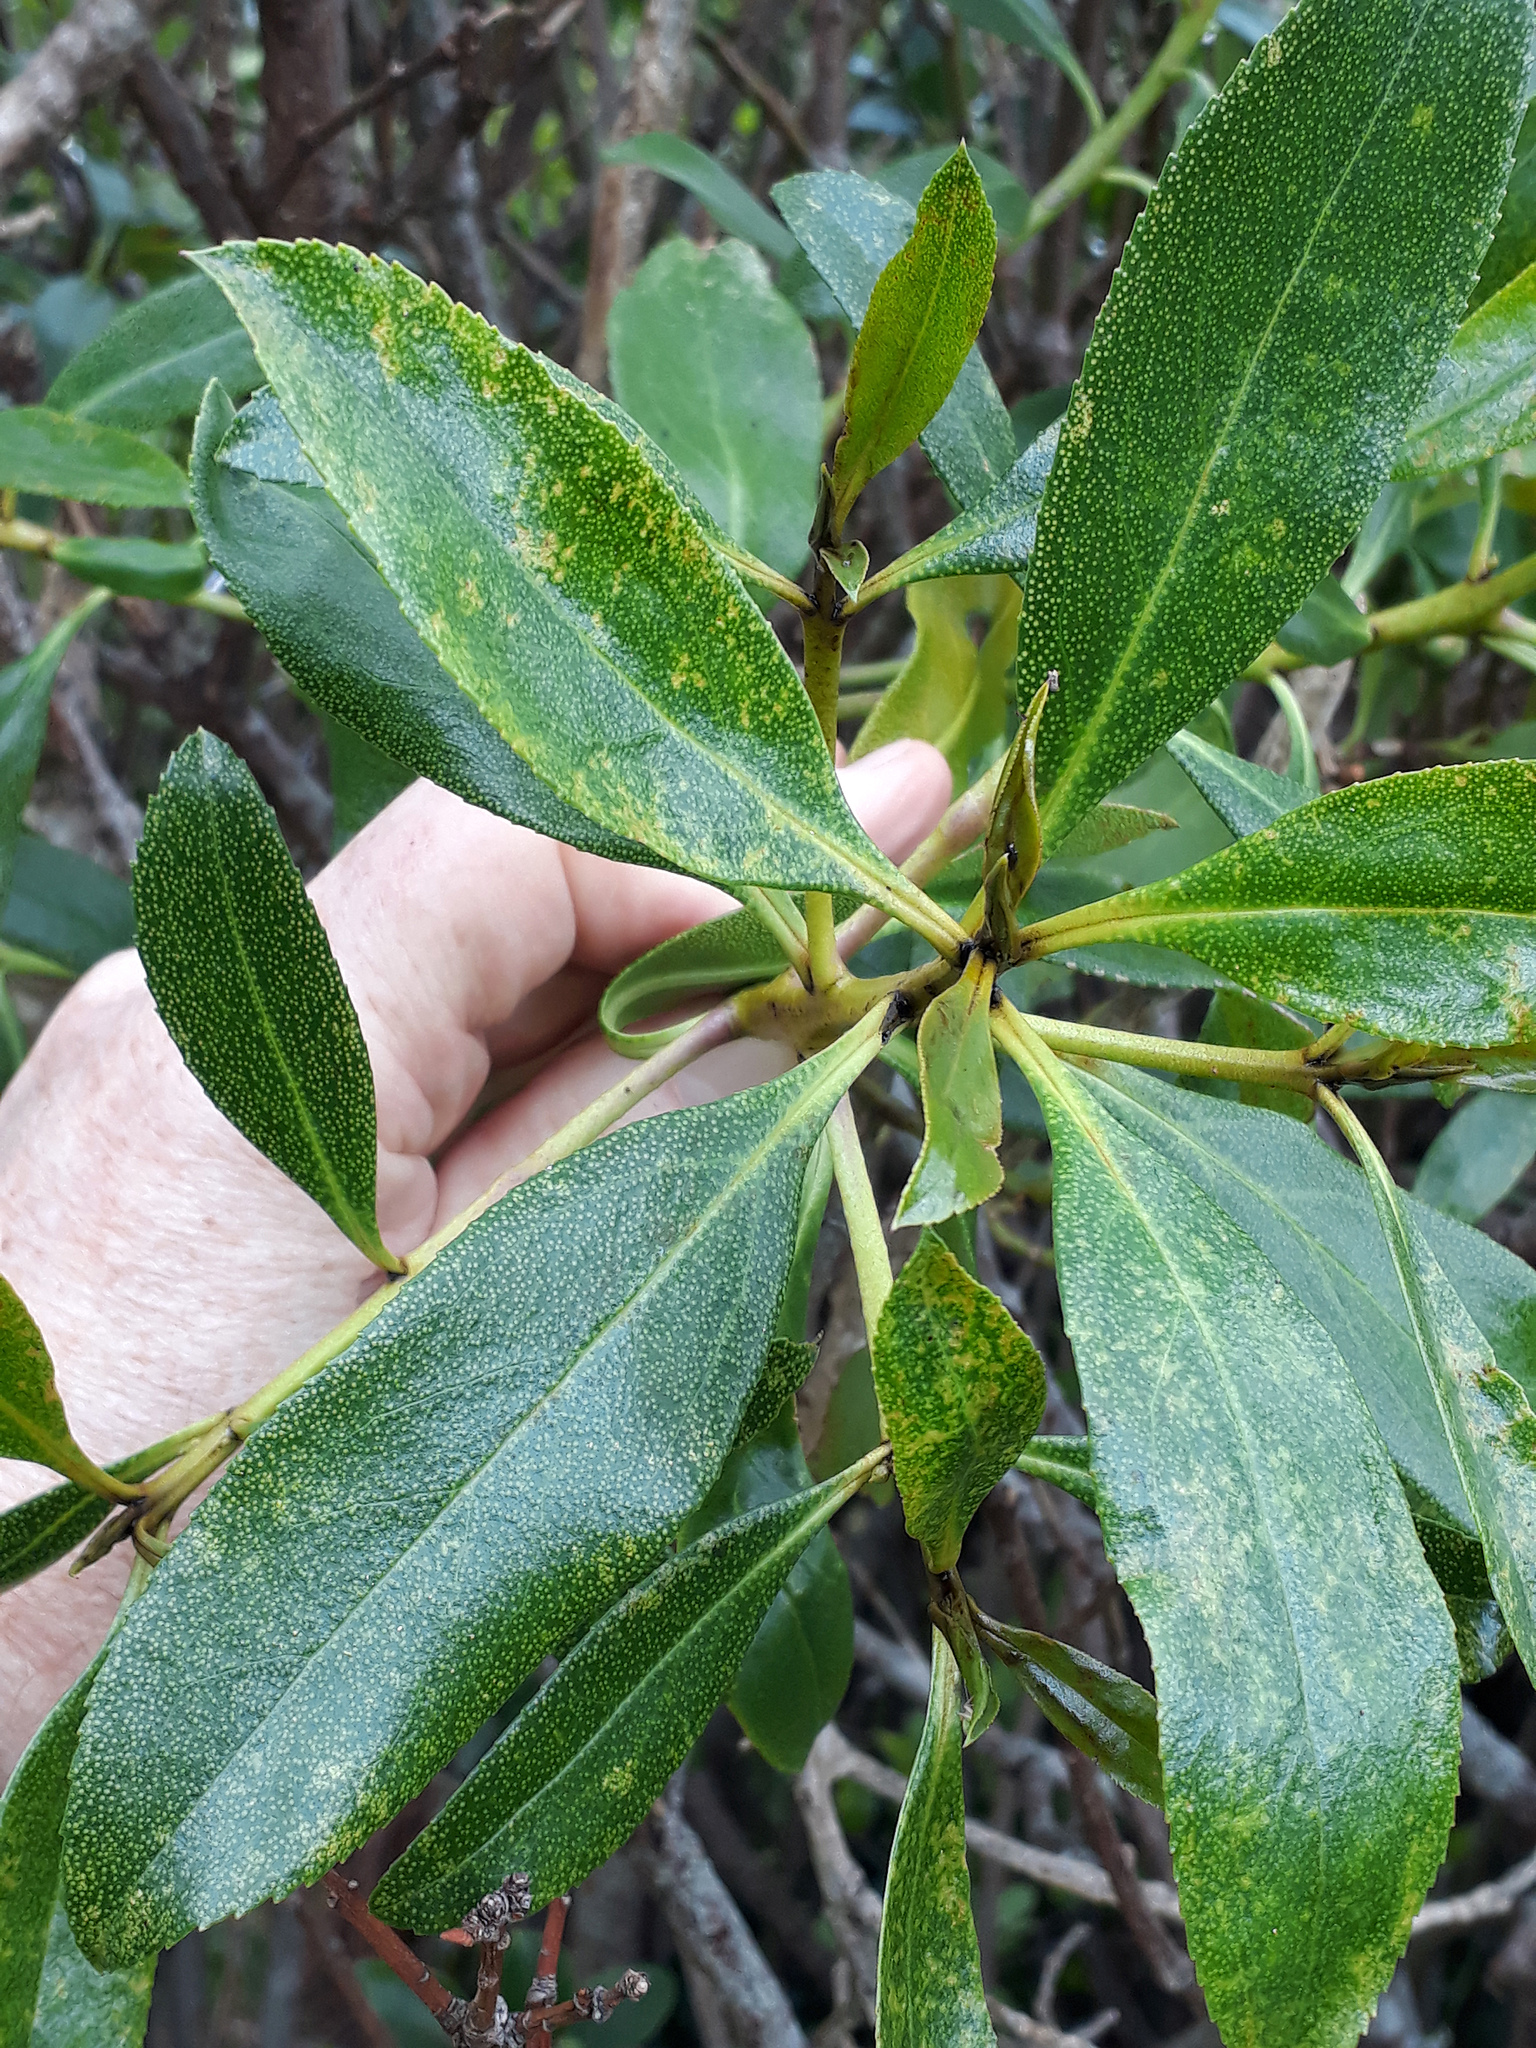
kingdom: Plantae
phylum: Tracheophyta
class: Magnoliopsida
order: Lamiales
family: Scrophulariaceae
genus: Myoporum
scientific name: Myoporum laetum
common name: Ngaio tree
